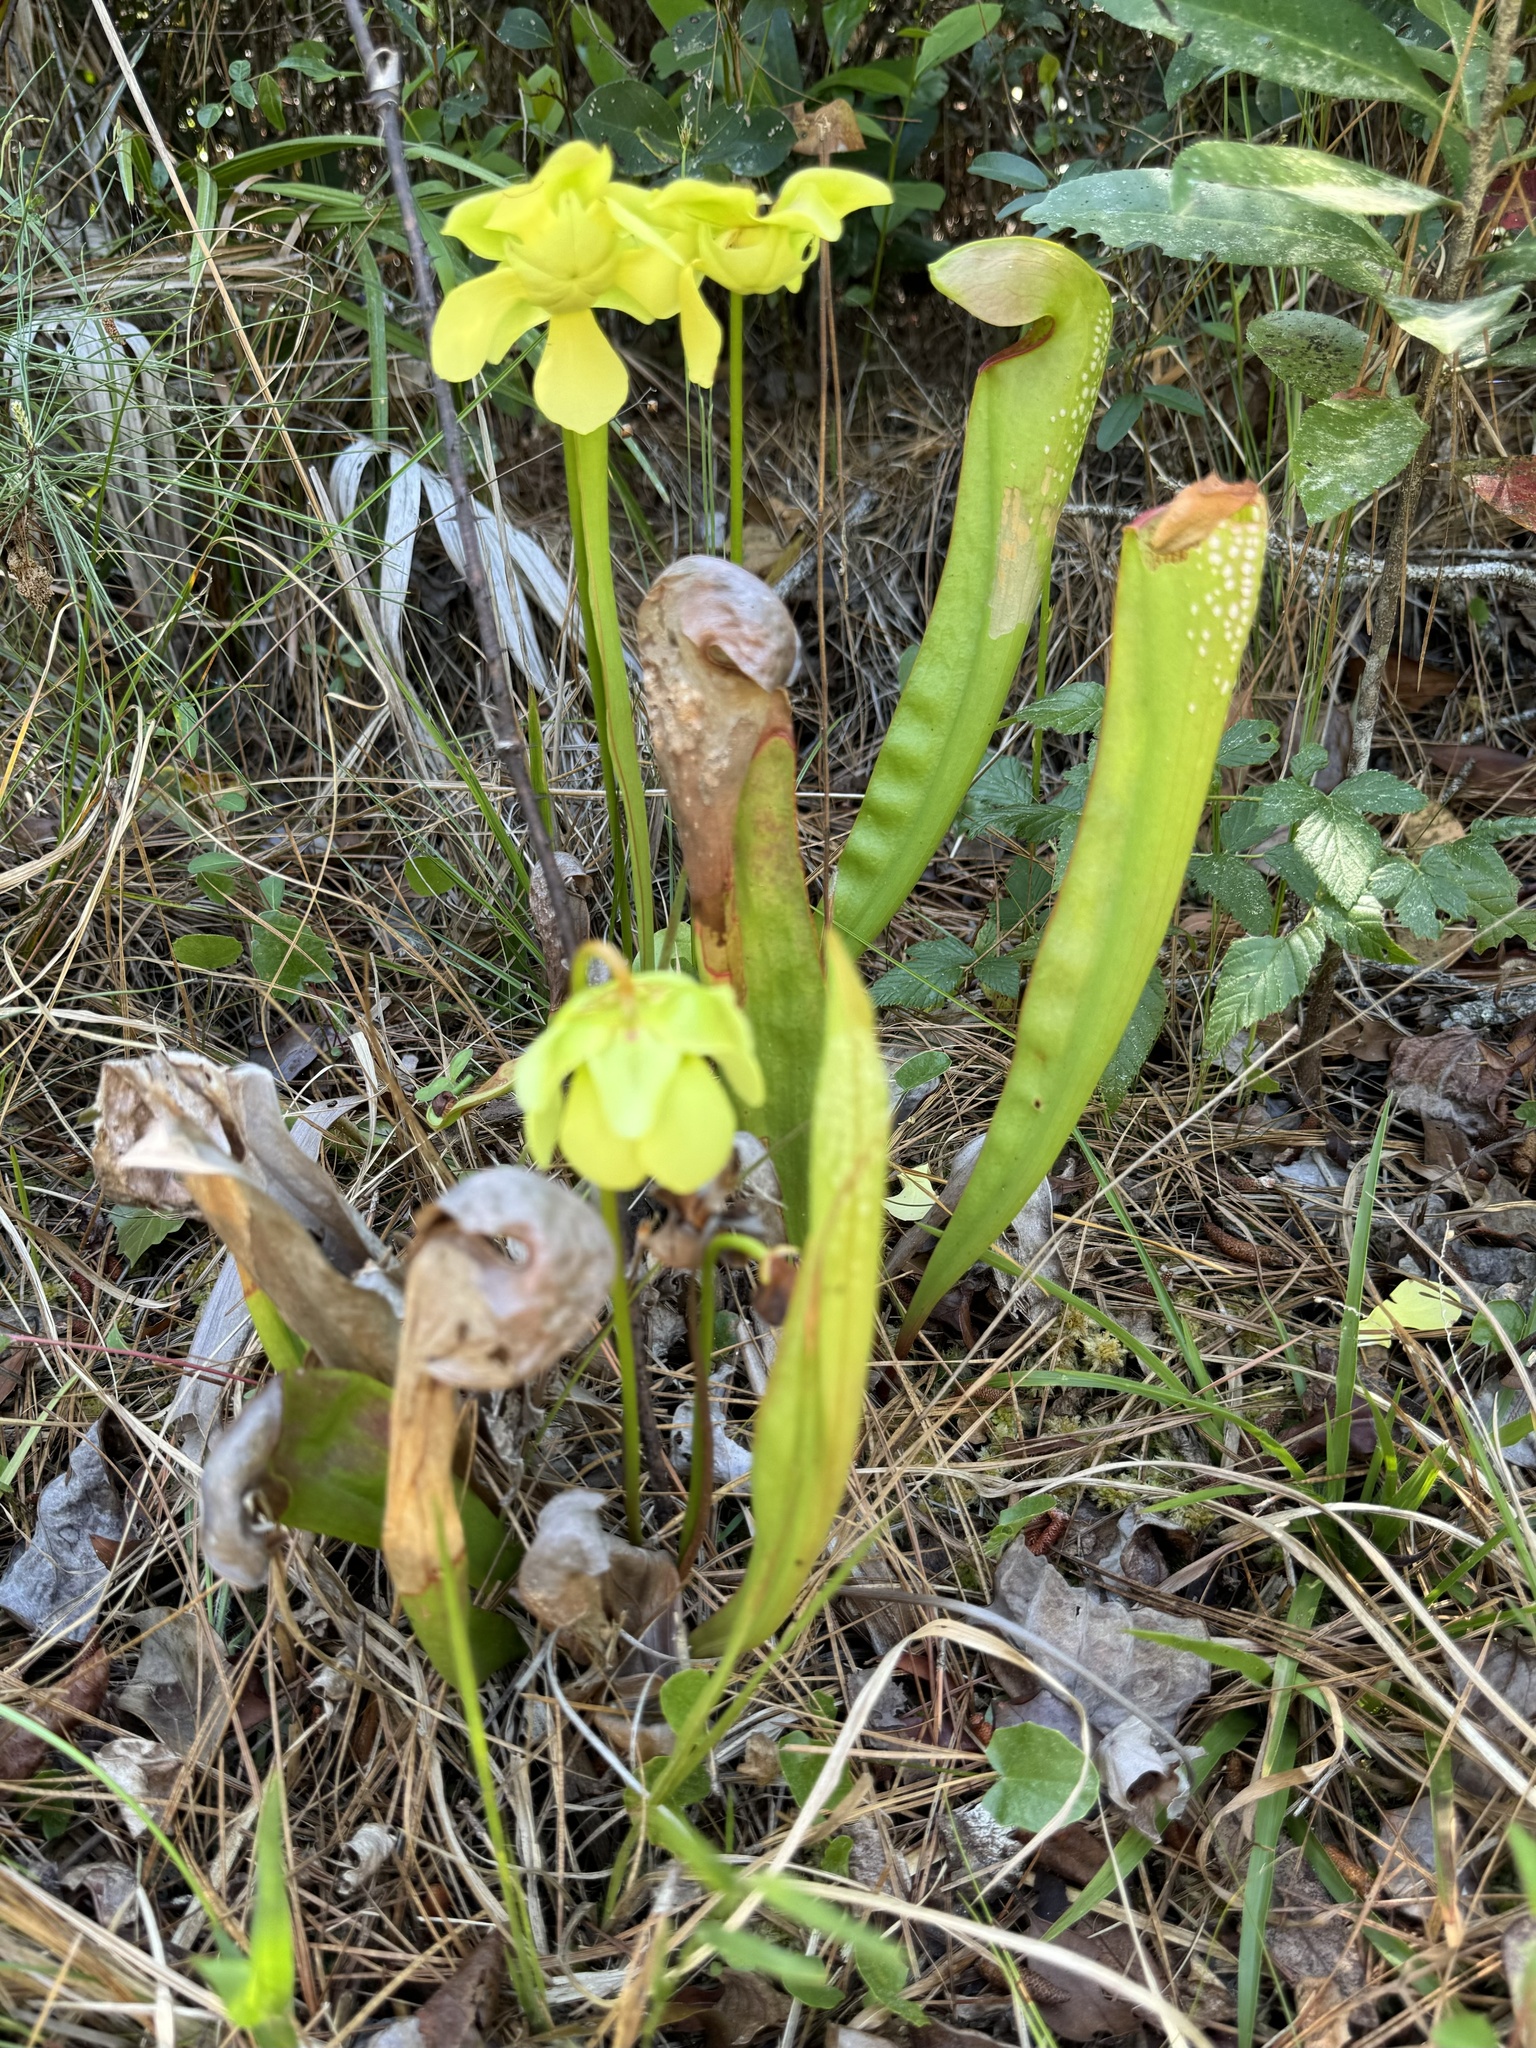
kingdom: Plantae
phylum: Tracheophyta
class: Magnoliopsida
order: Ericales
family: Sarraceniaceae
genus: Sarracenia
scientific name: Sarracenia minor
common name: Rainhat-trumpet
